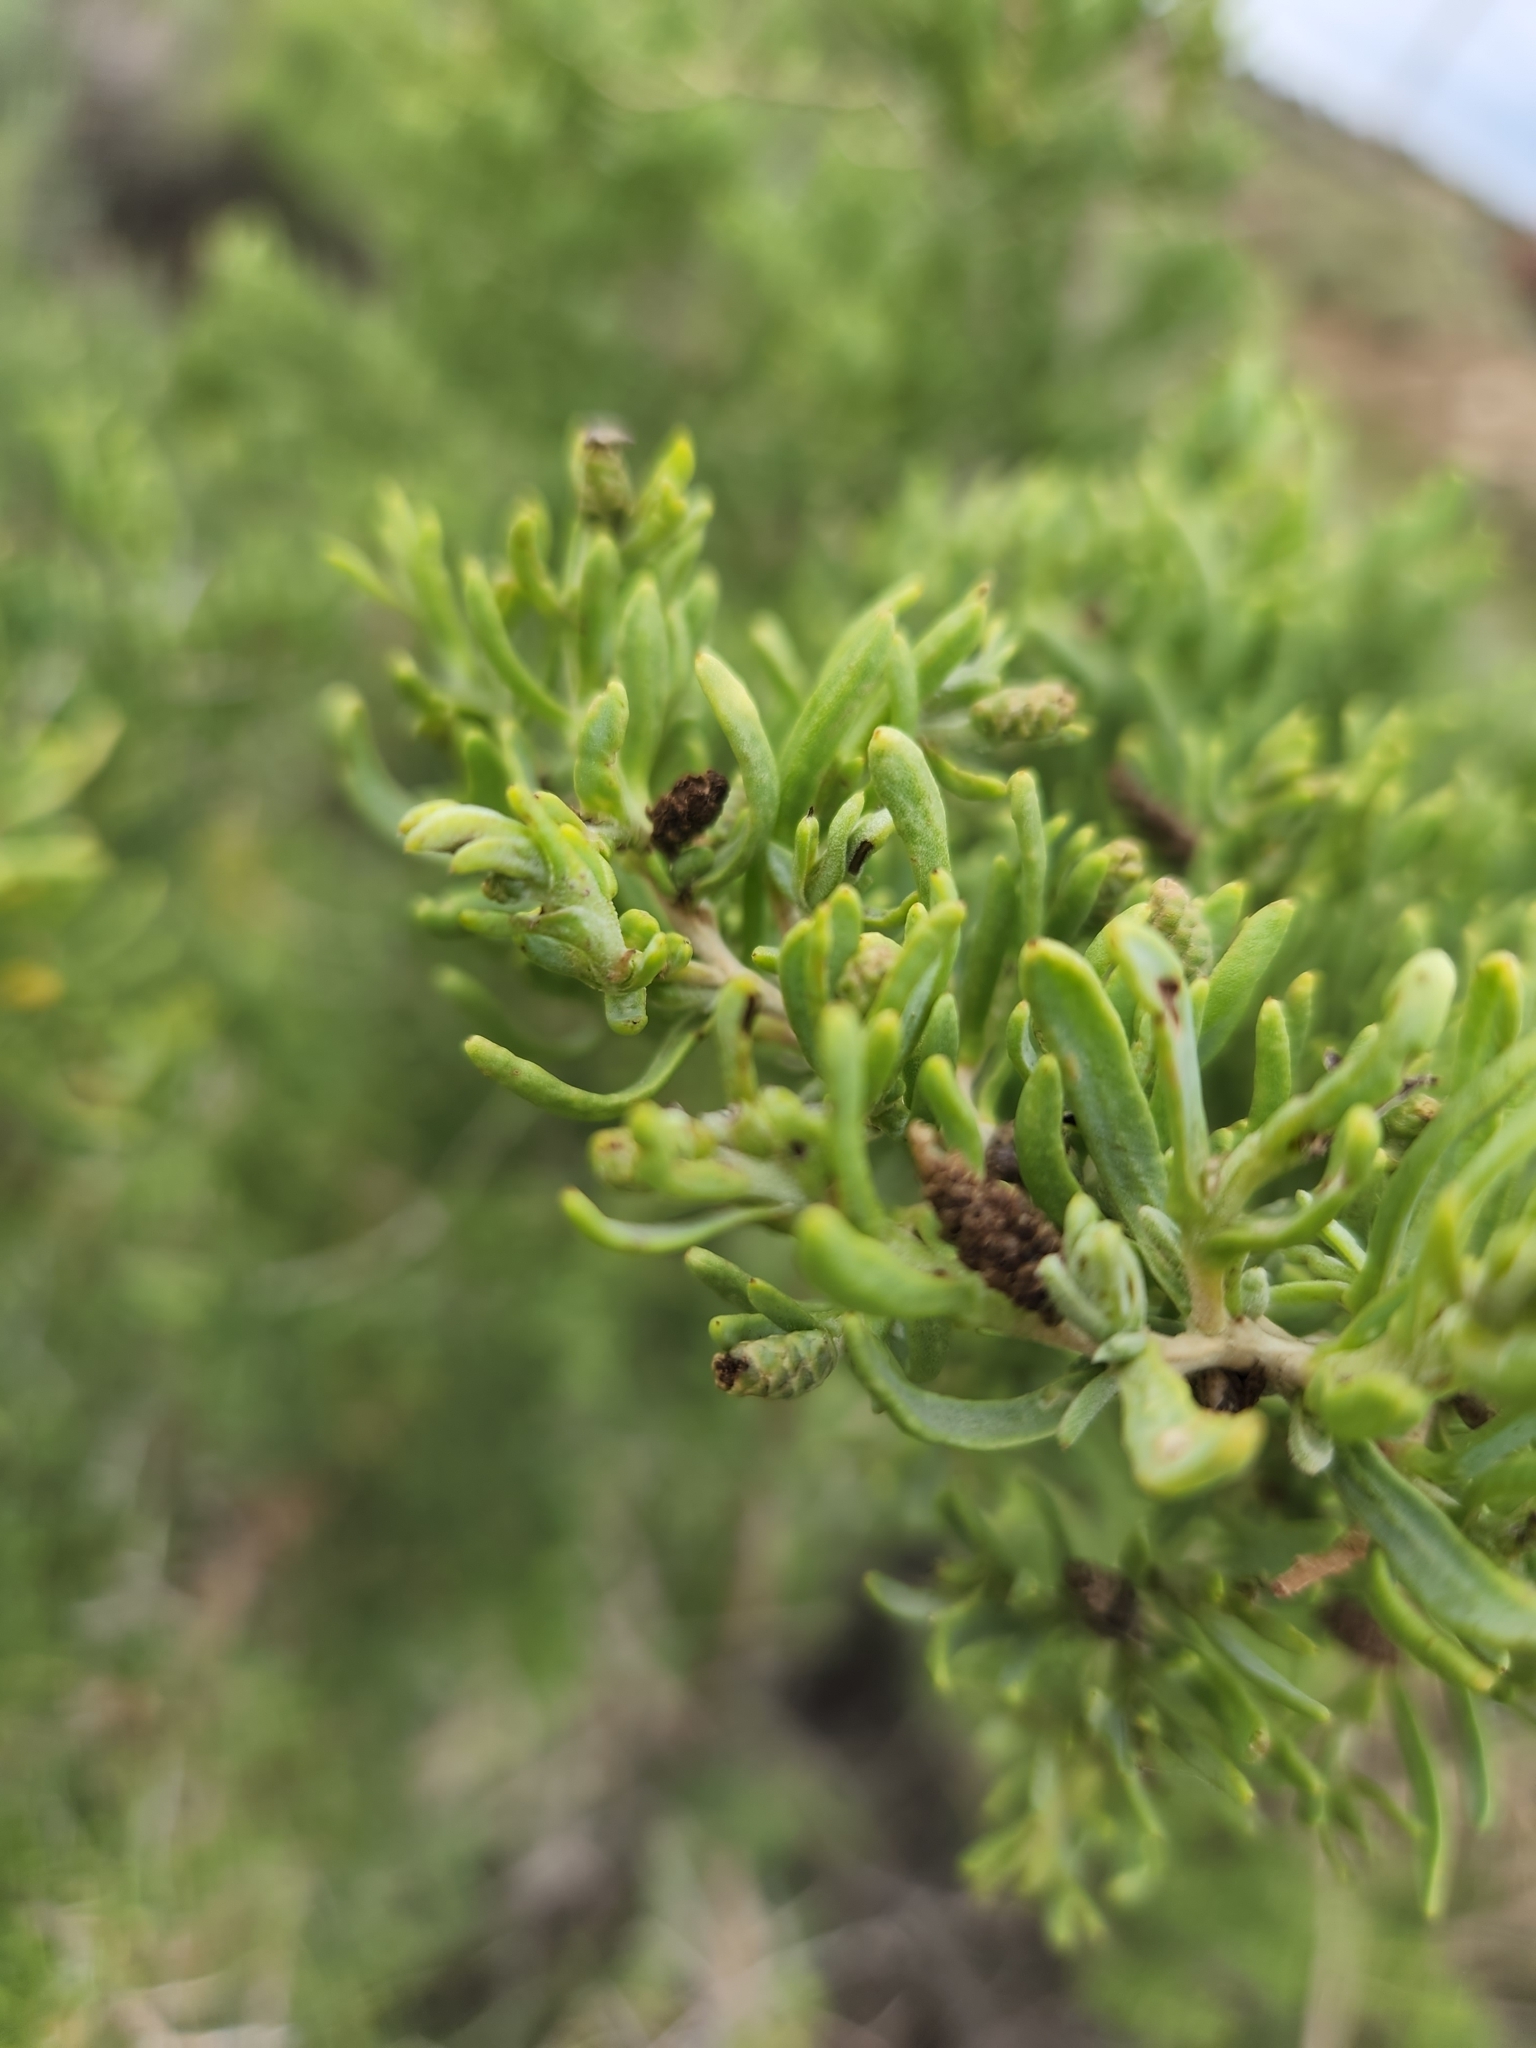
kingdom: Plantae
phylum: Tracheophyta
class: Magnoliopsida
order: Caryophyllales
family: Sarcobataceae
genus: Sarcobatus
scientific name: Sarcobatus vermiculatus
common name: Greasewood
